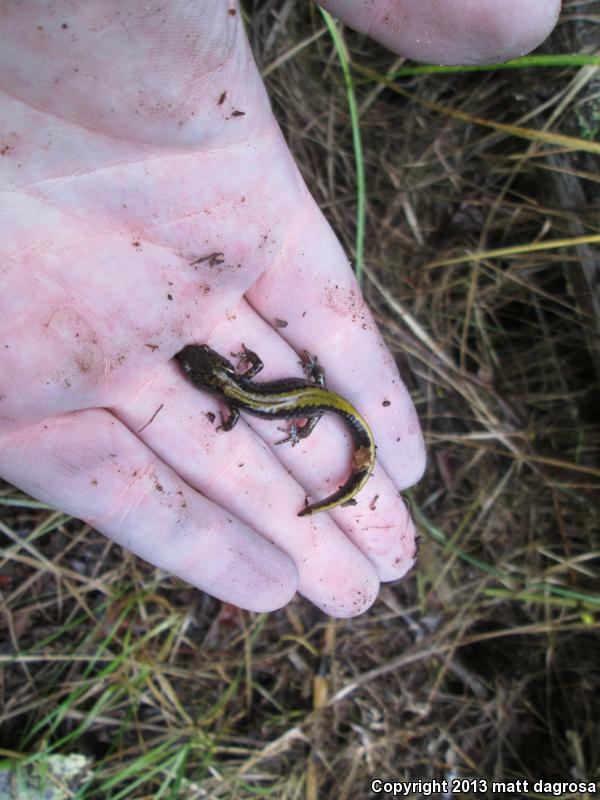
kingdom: Animalia
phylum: Chordata
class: Amphibia
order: Caudata
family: Ambystomatidae
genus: Ambystoma
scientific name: Ambystoma macrodactylum
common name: Long-toed salamander
